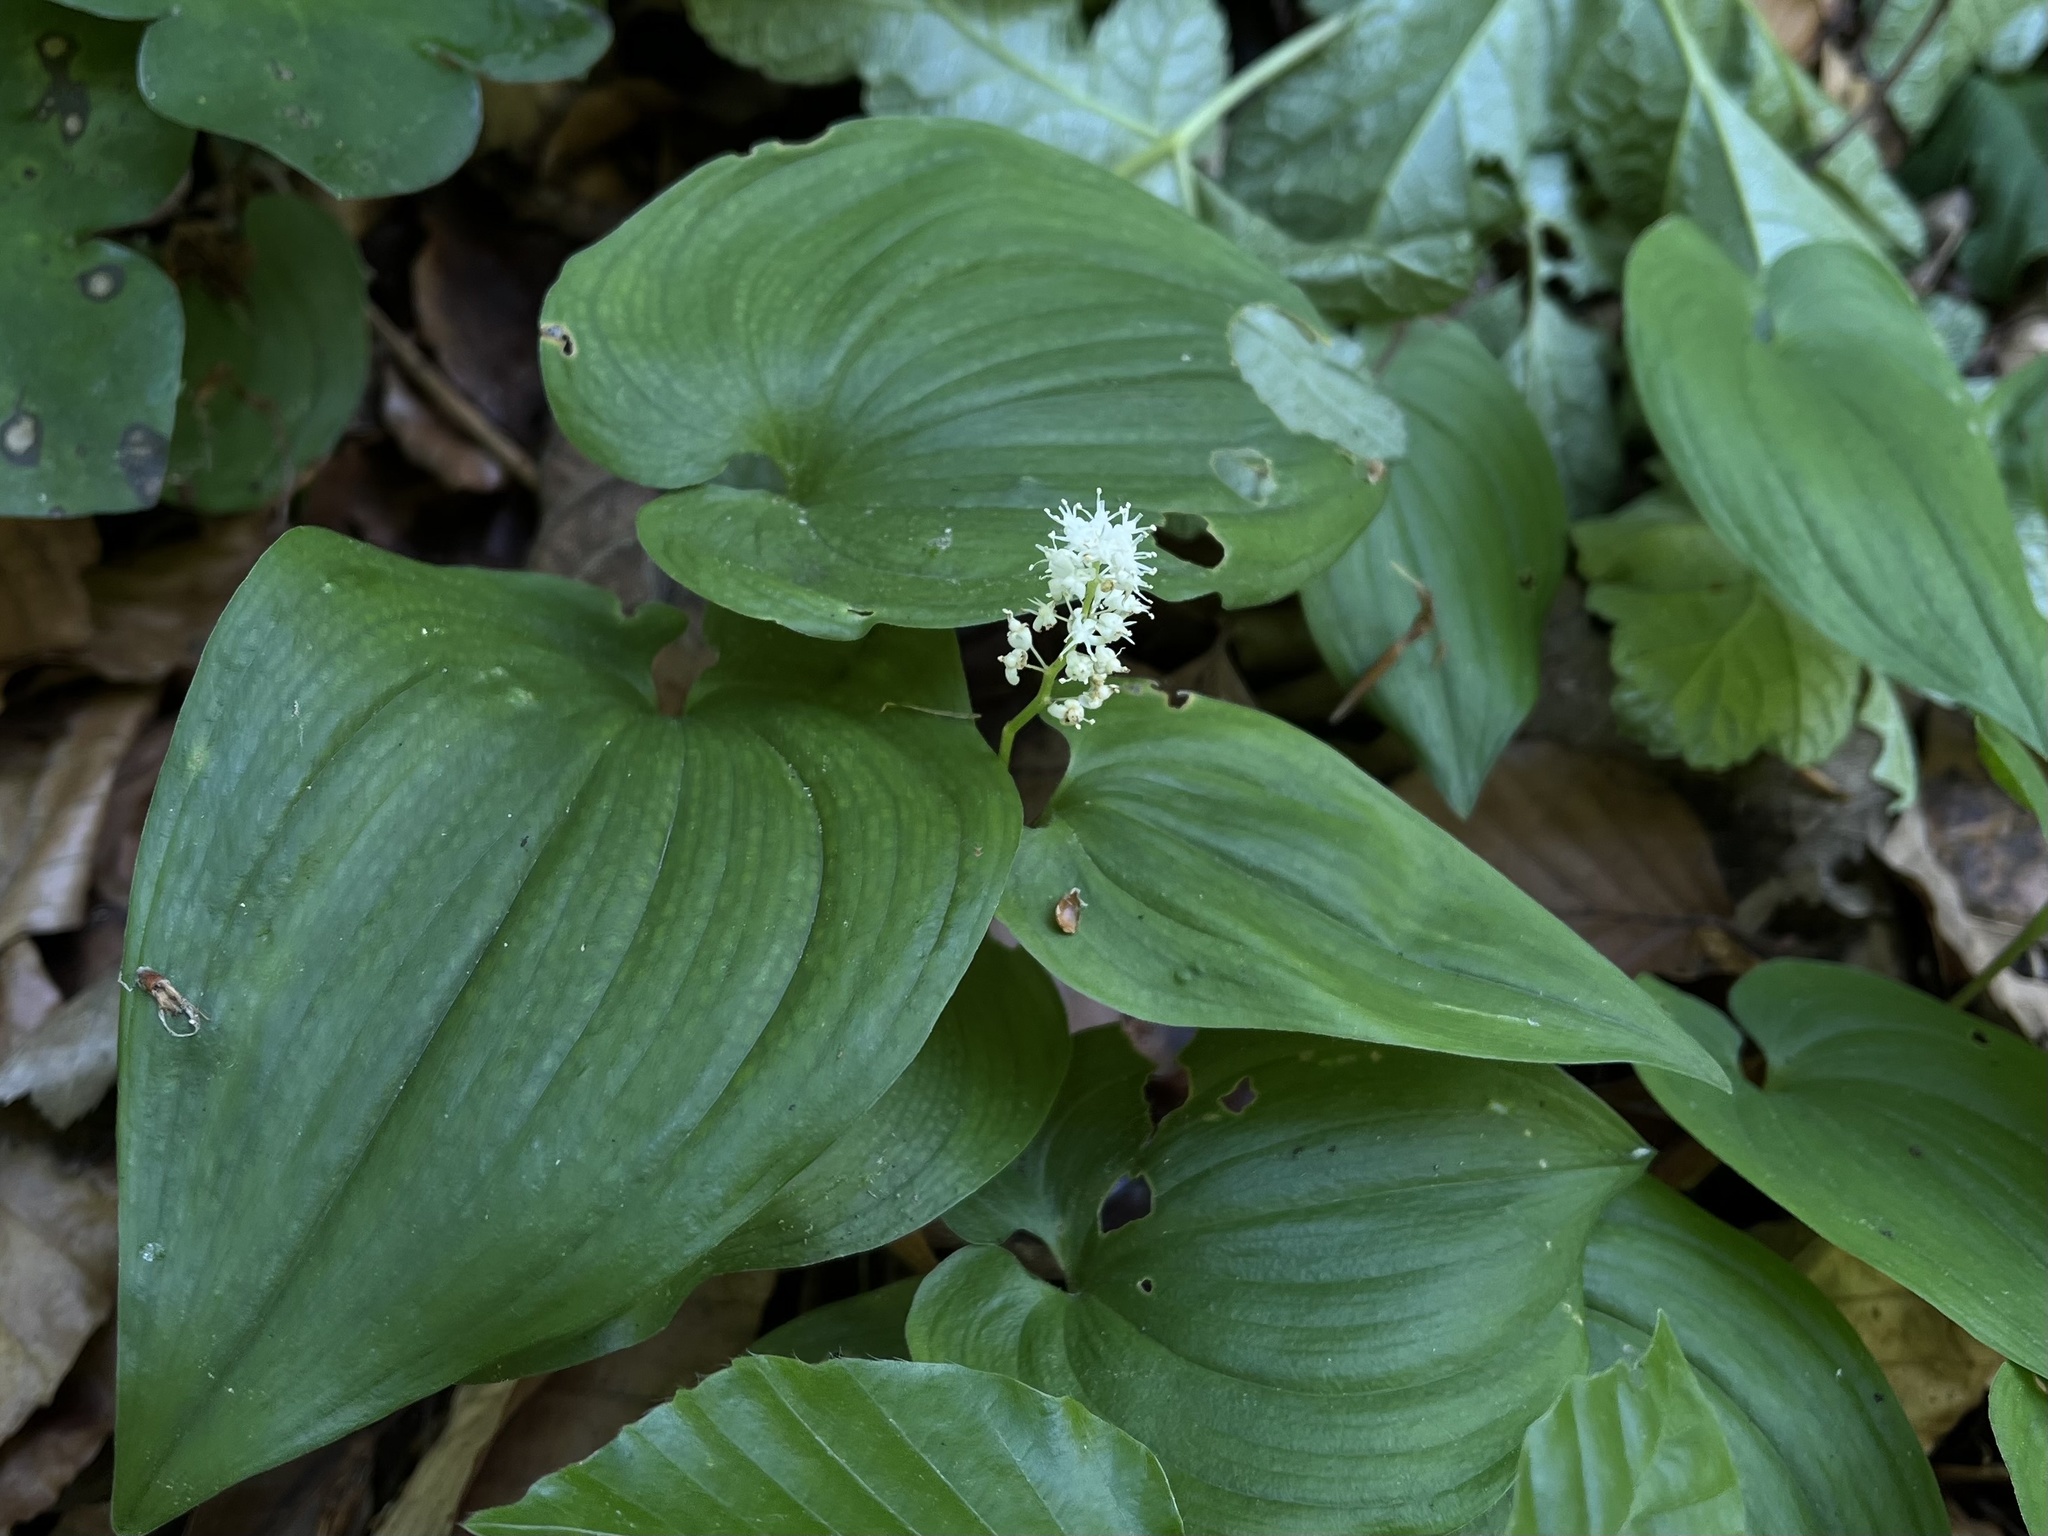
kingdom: Plantae
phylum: Tracheophyta
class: Liliopsida
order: Asparagales
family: Asparagaceae
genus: Maianthemum
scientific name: Maianthemum bifolium
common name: May lily
